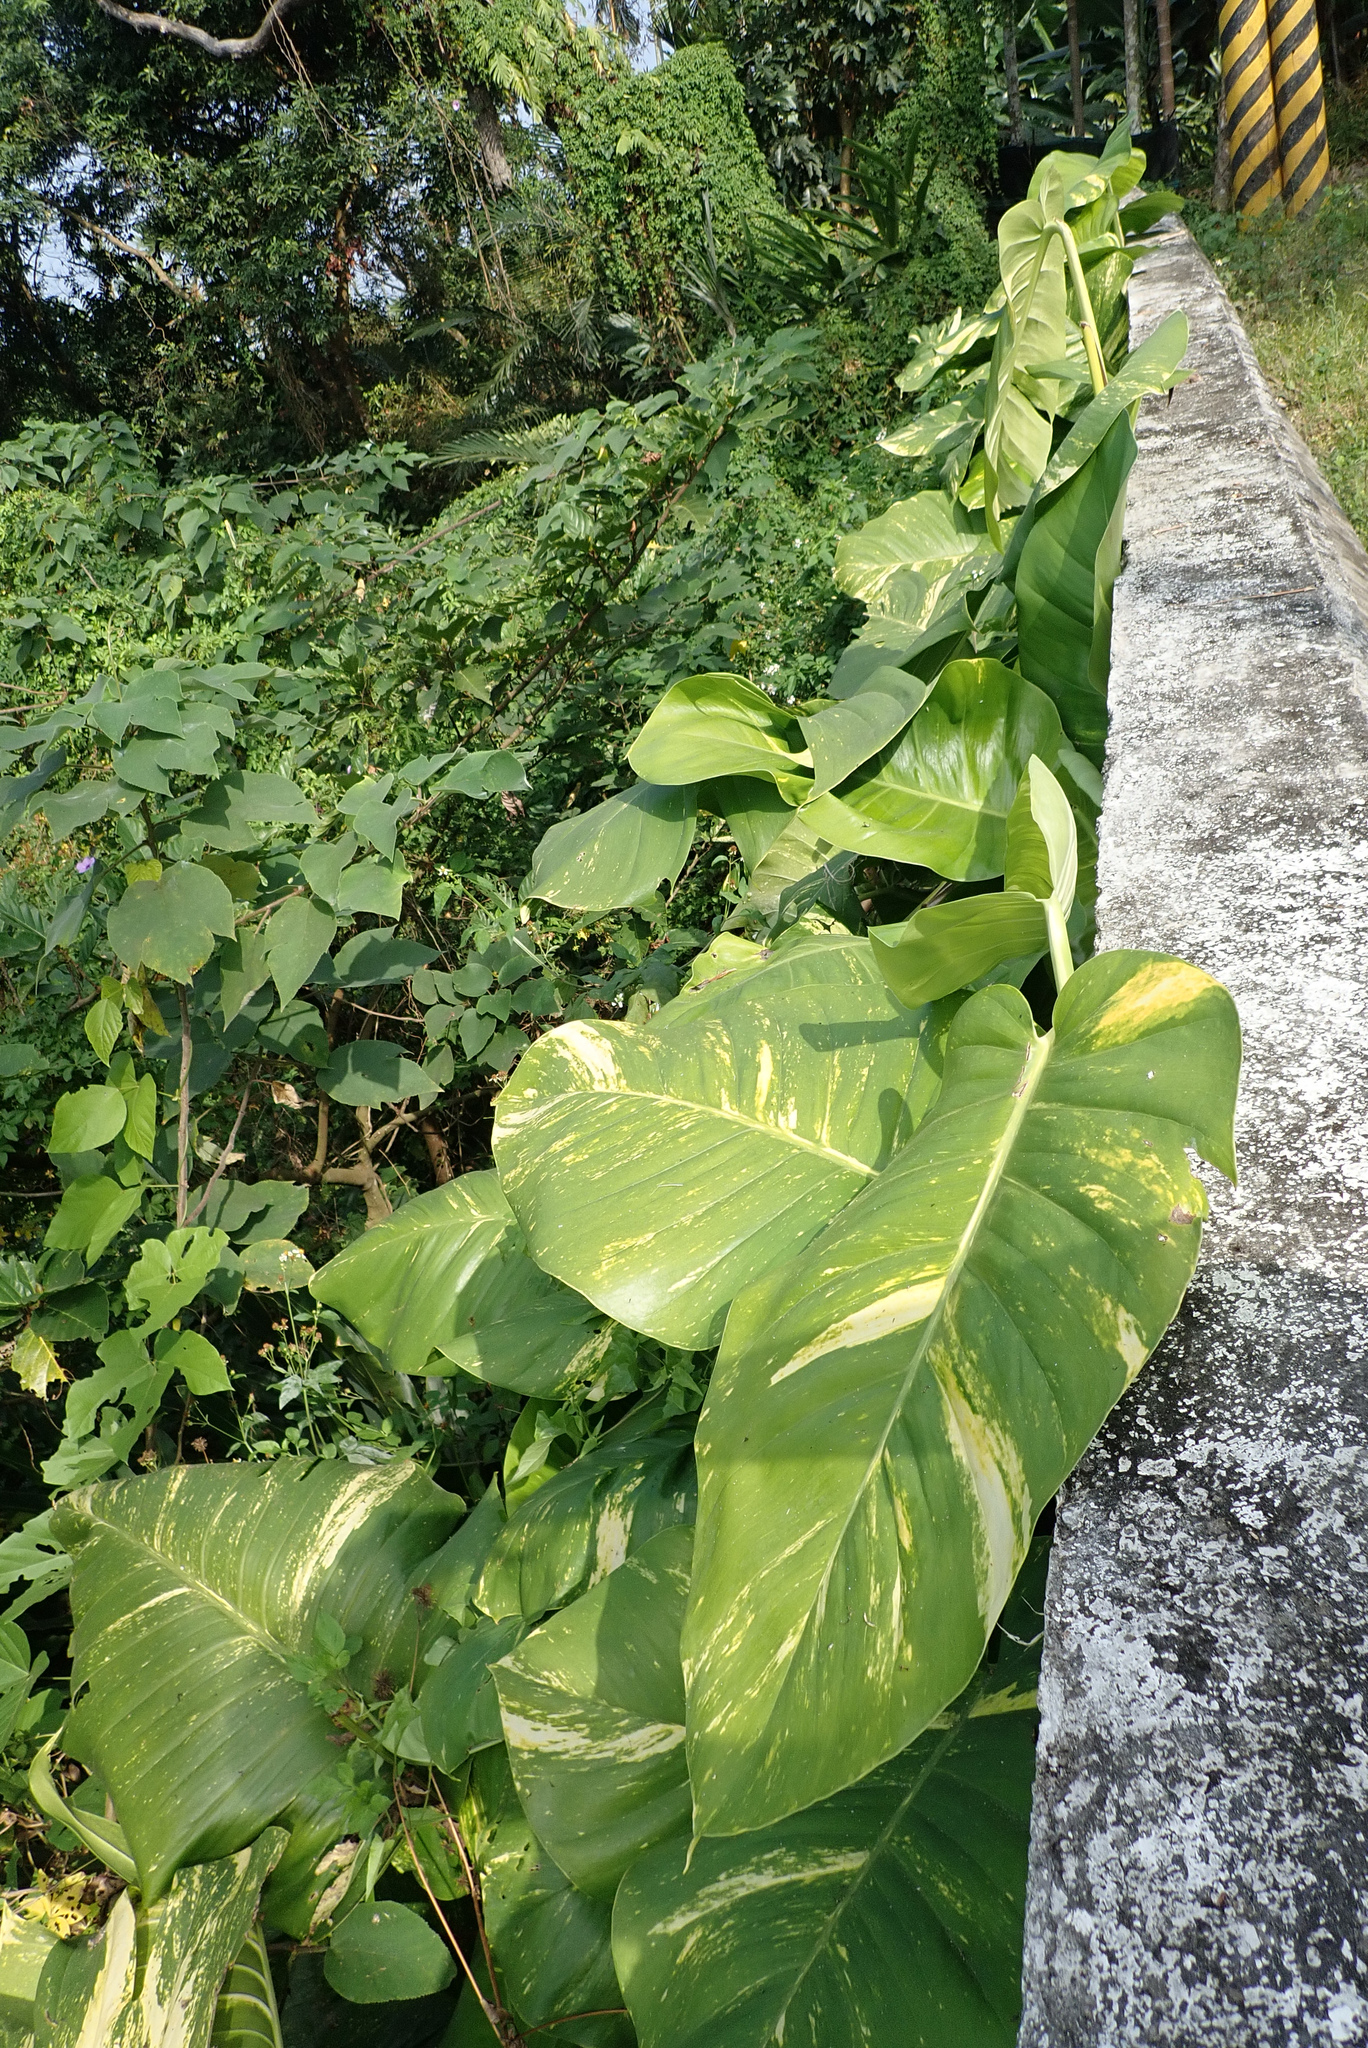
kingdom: Plantae
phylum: Tracheophyta
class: Liliopsida
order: Alismatales
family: Araceae
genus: Epipremnum
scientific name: Epipremnum aureum
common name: Golden hunter's-robe
